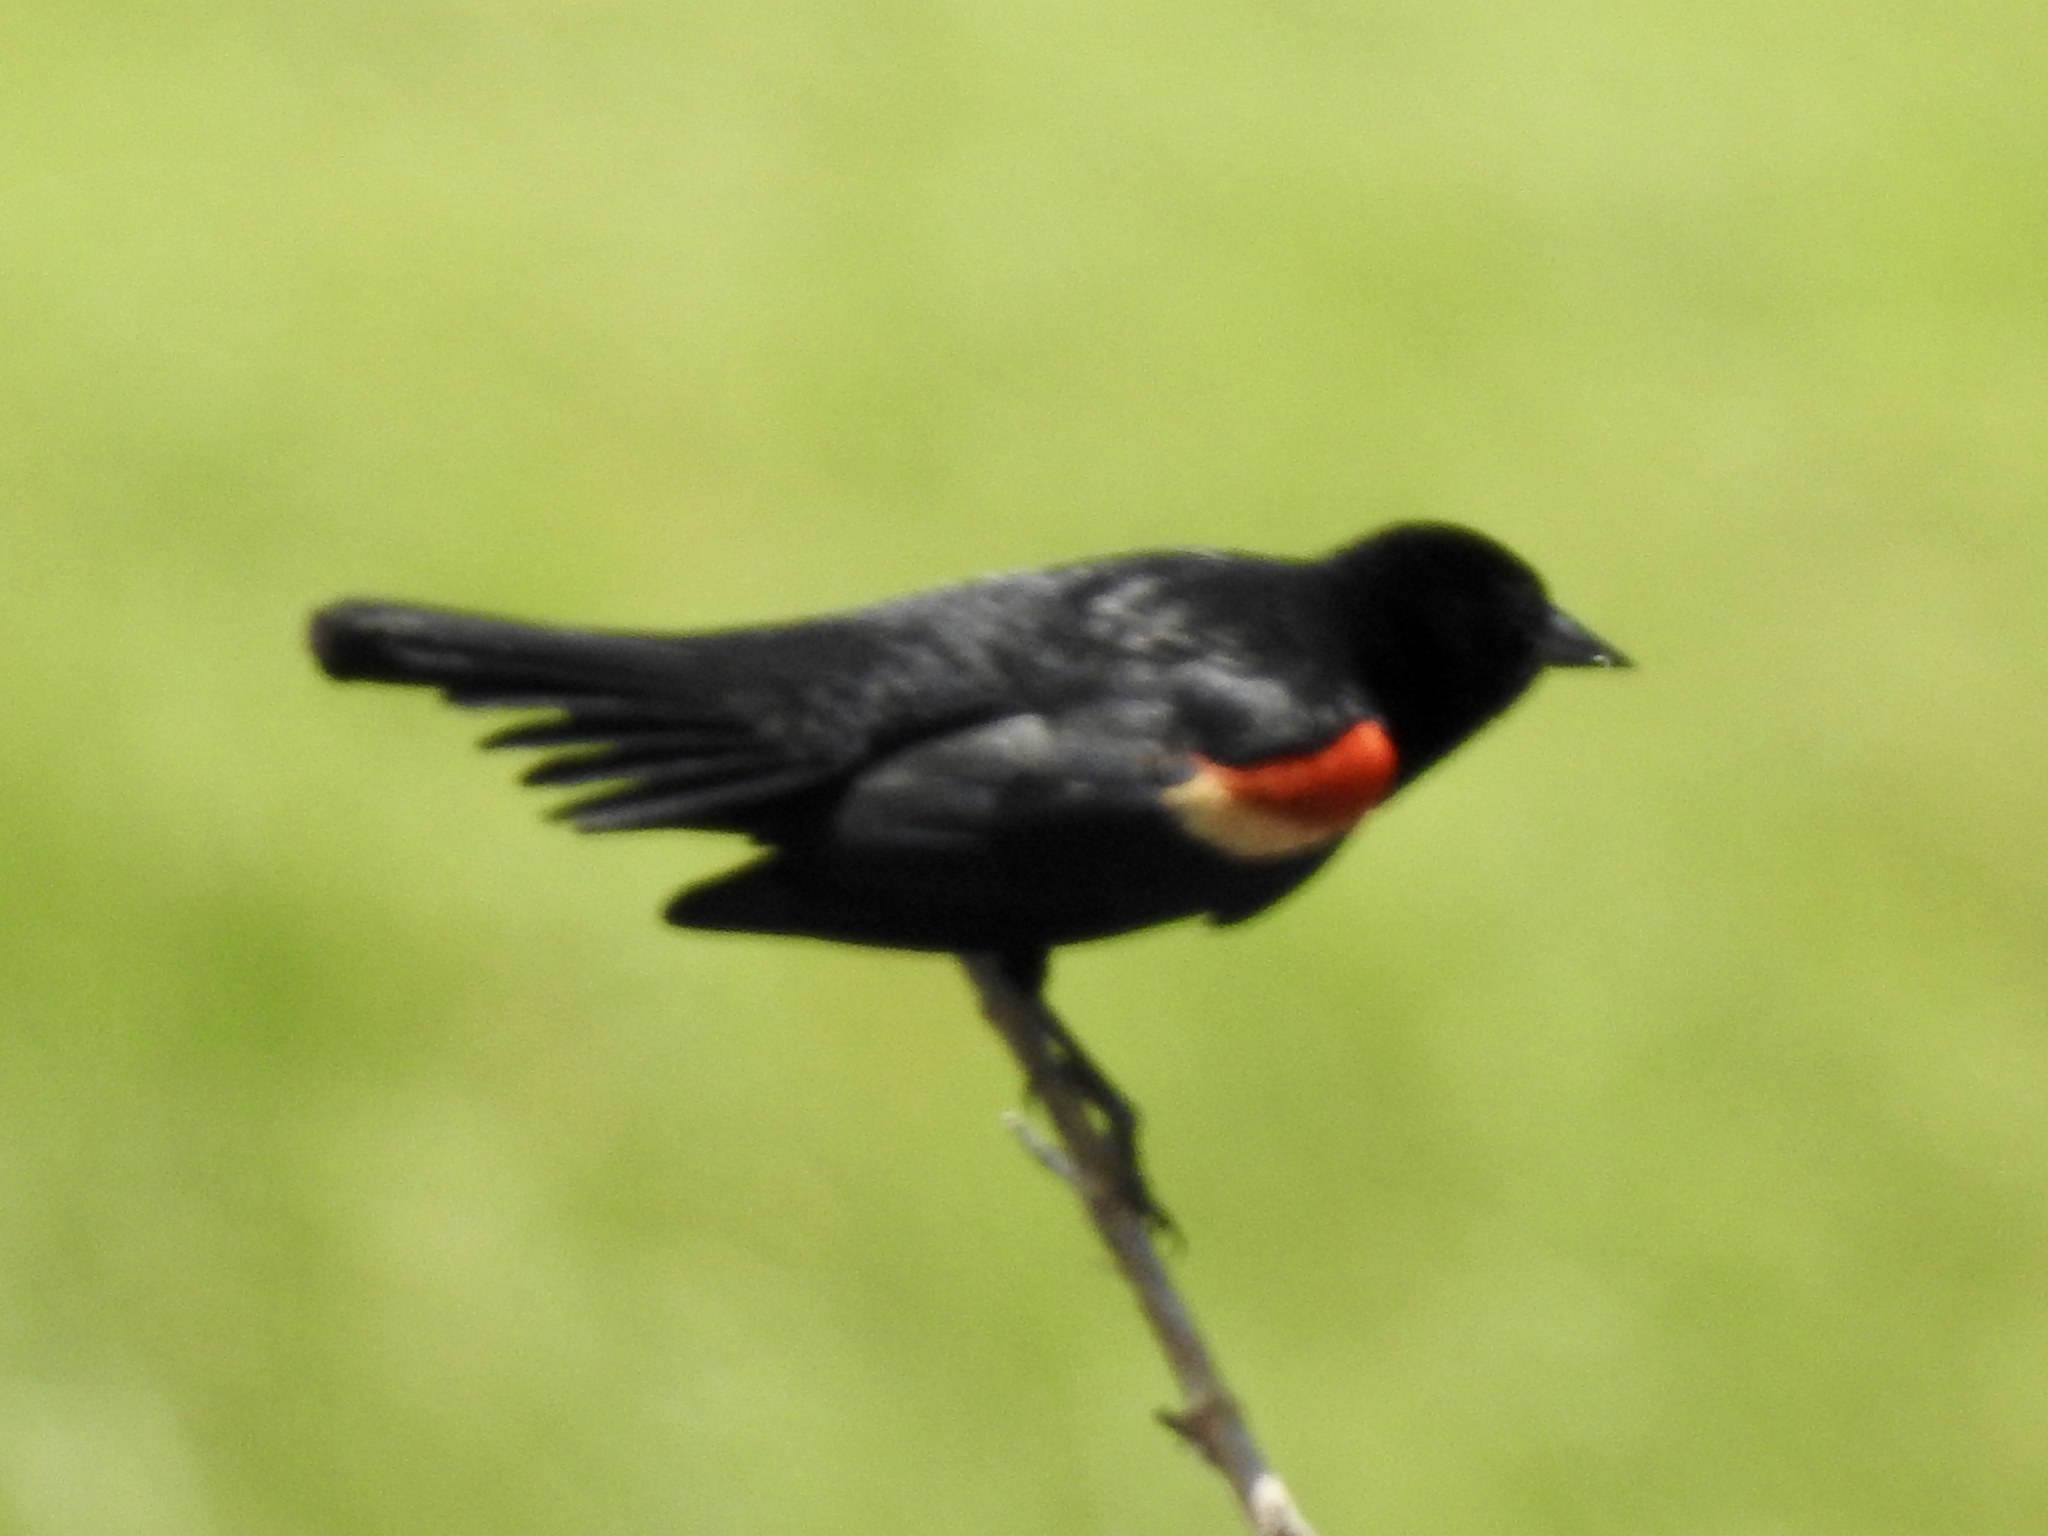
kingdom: Animalia
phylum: Chordata
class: Aves
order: Passeriformes
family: Icteridae
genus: Agelaius
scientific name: Agelaius phoeniceus
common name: Red-winged blackbird
